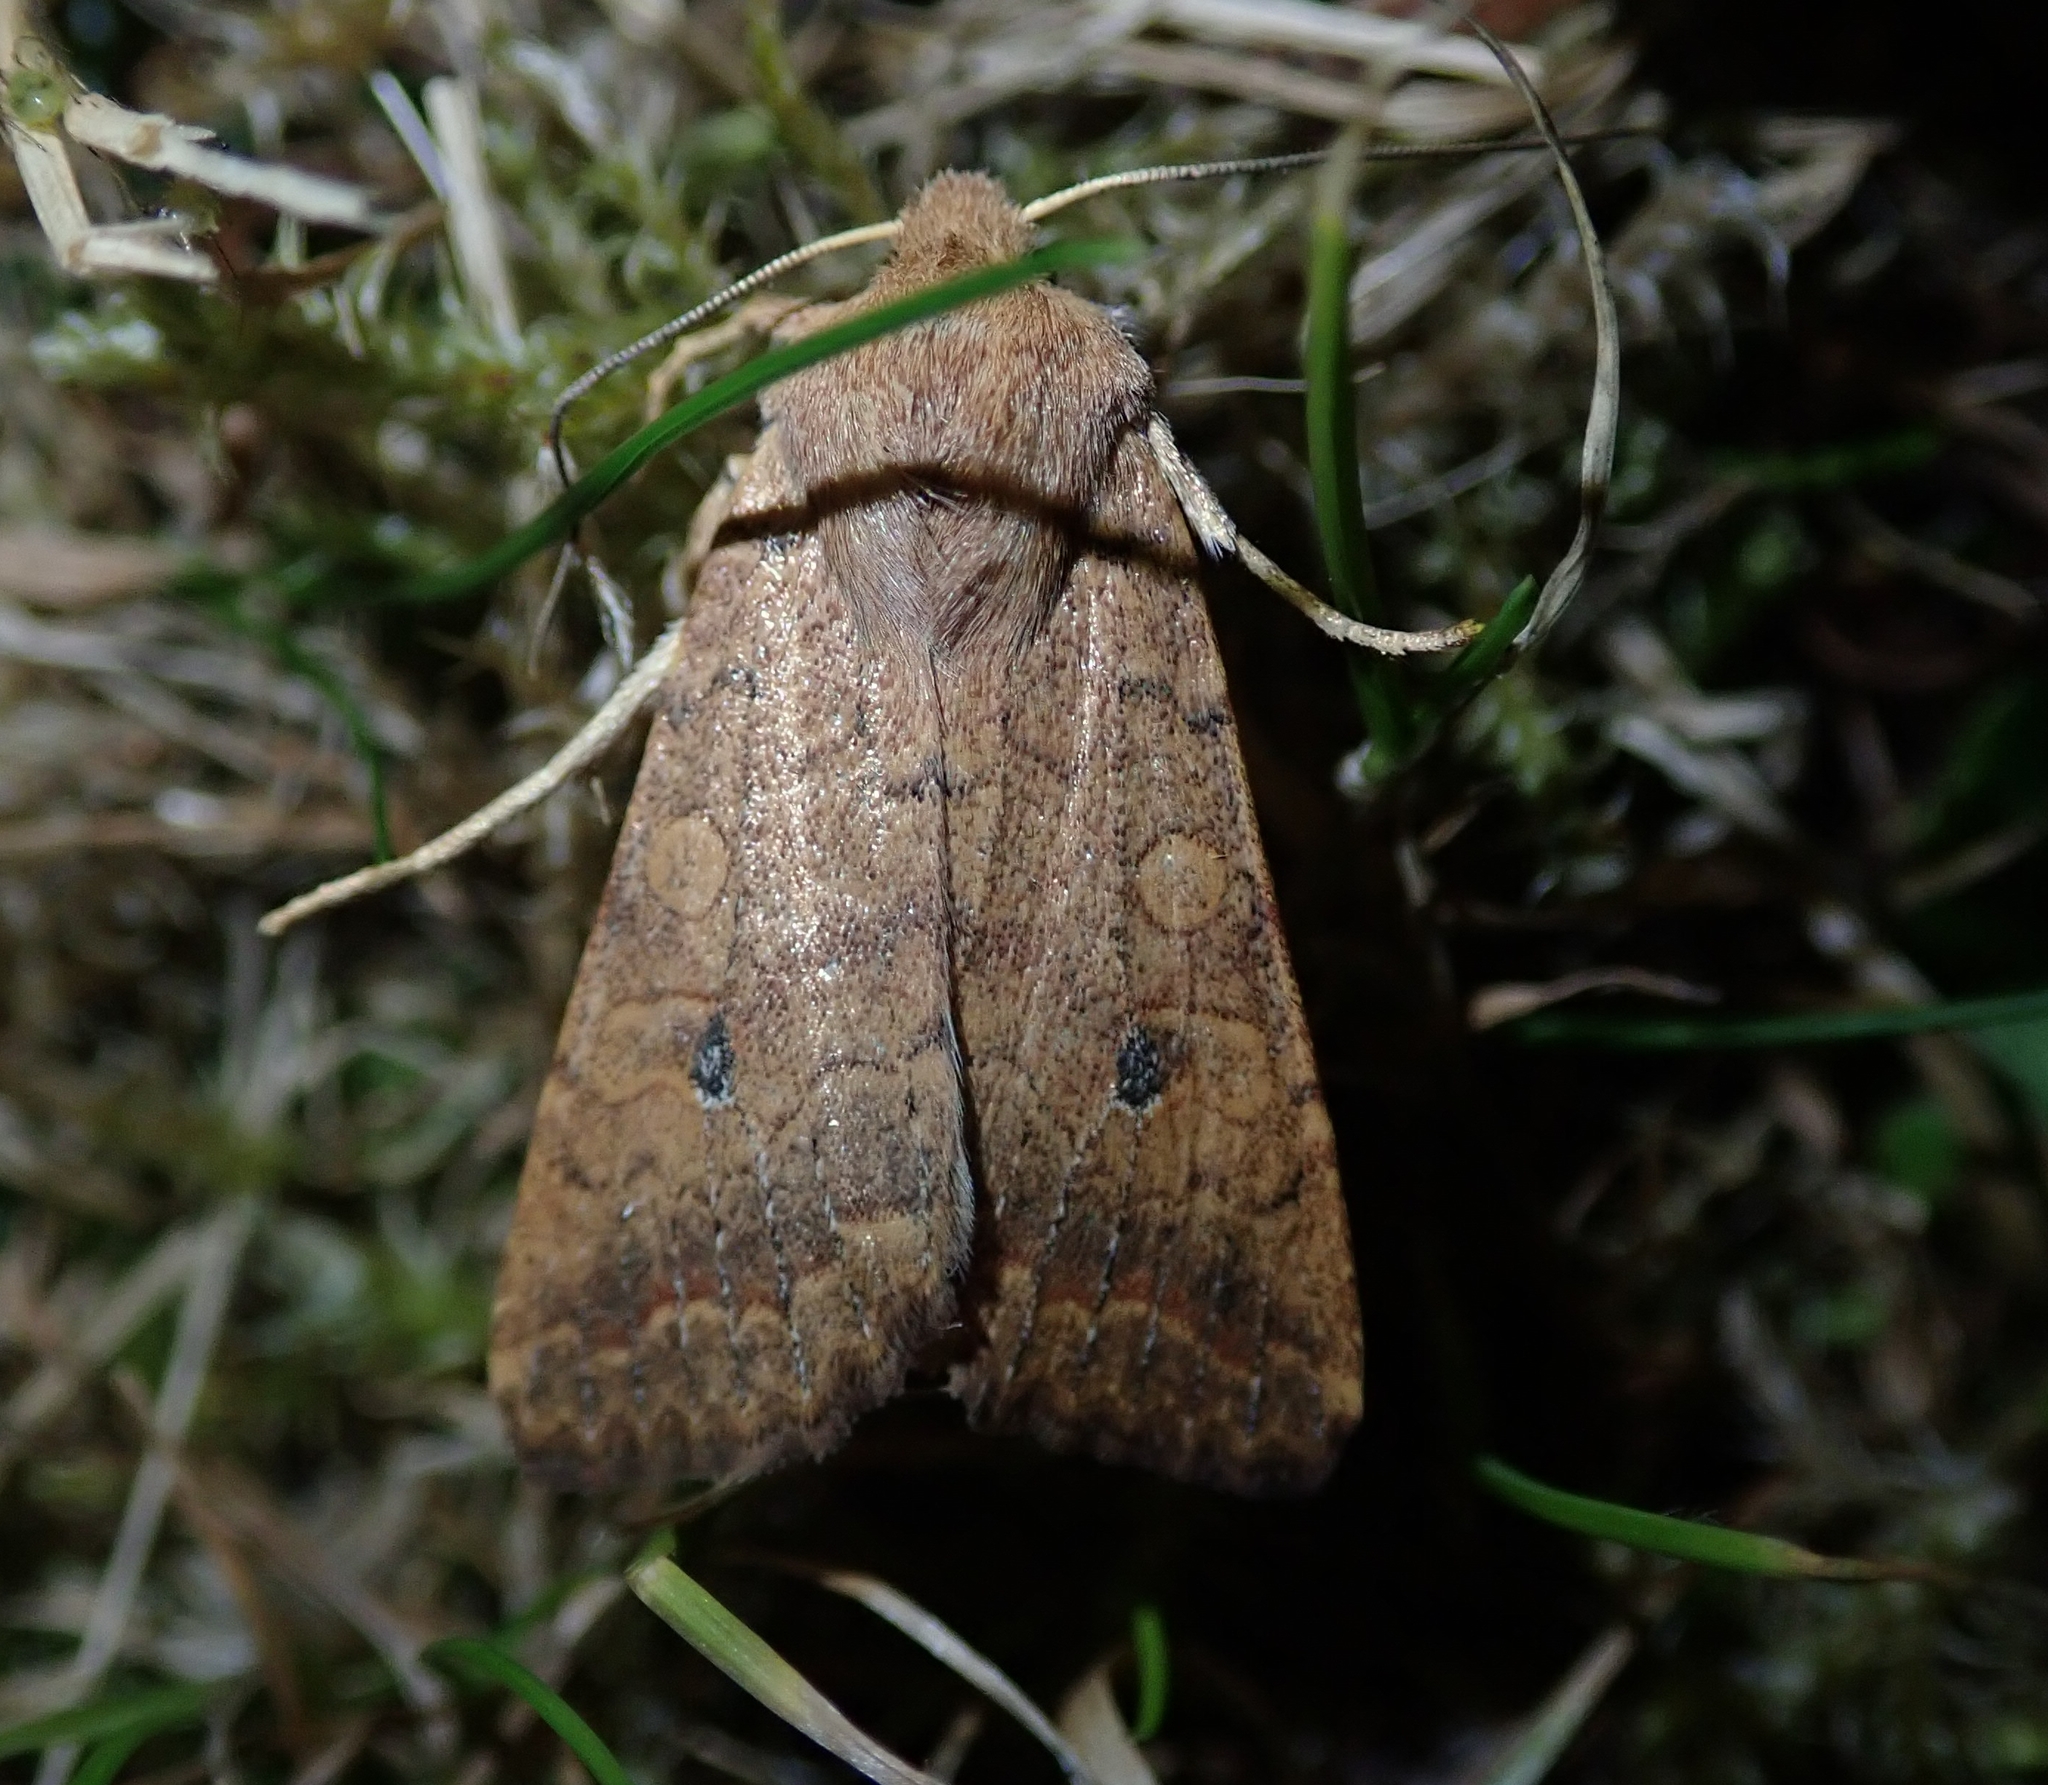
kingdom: Animalia
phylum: Arthropoda
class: Insecta
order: Lepidoptera
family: Noctuidae
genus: Sunira
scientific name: Sunira circellaris
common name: Brick
